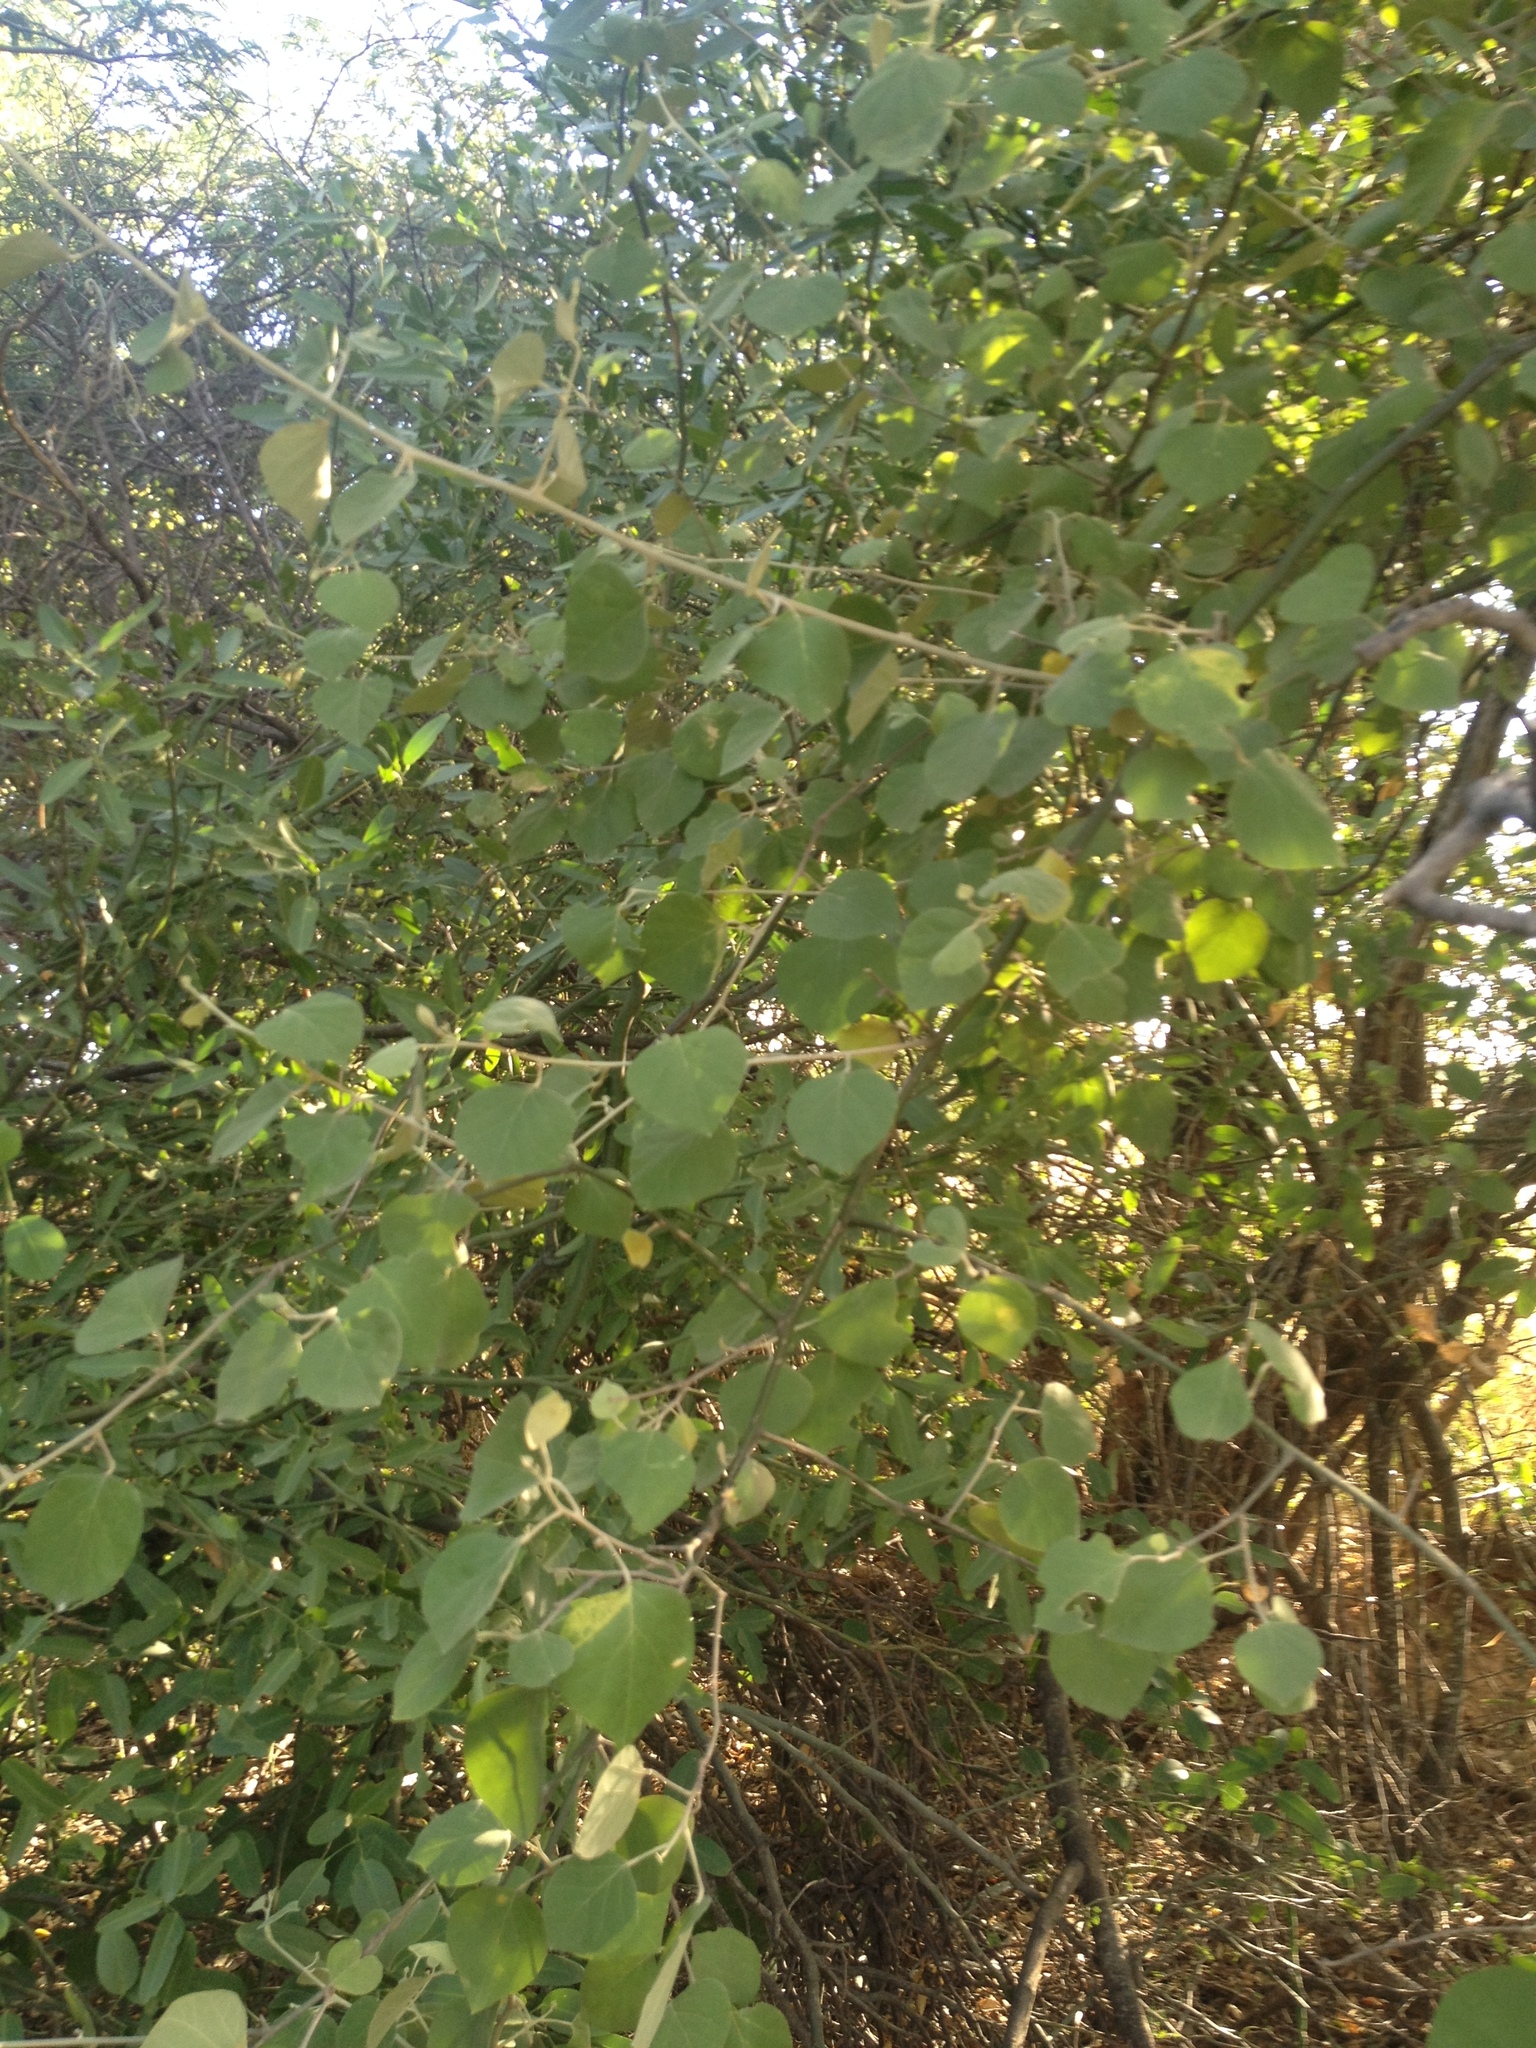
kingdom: Plantae
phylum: Tracheophyta
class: Magnoliopsida
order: Brassicales
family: Capparaceae
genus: Capparicordis
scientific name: Capparicordis tweedieana
